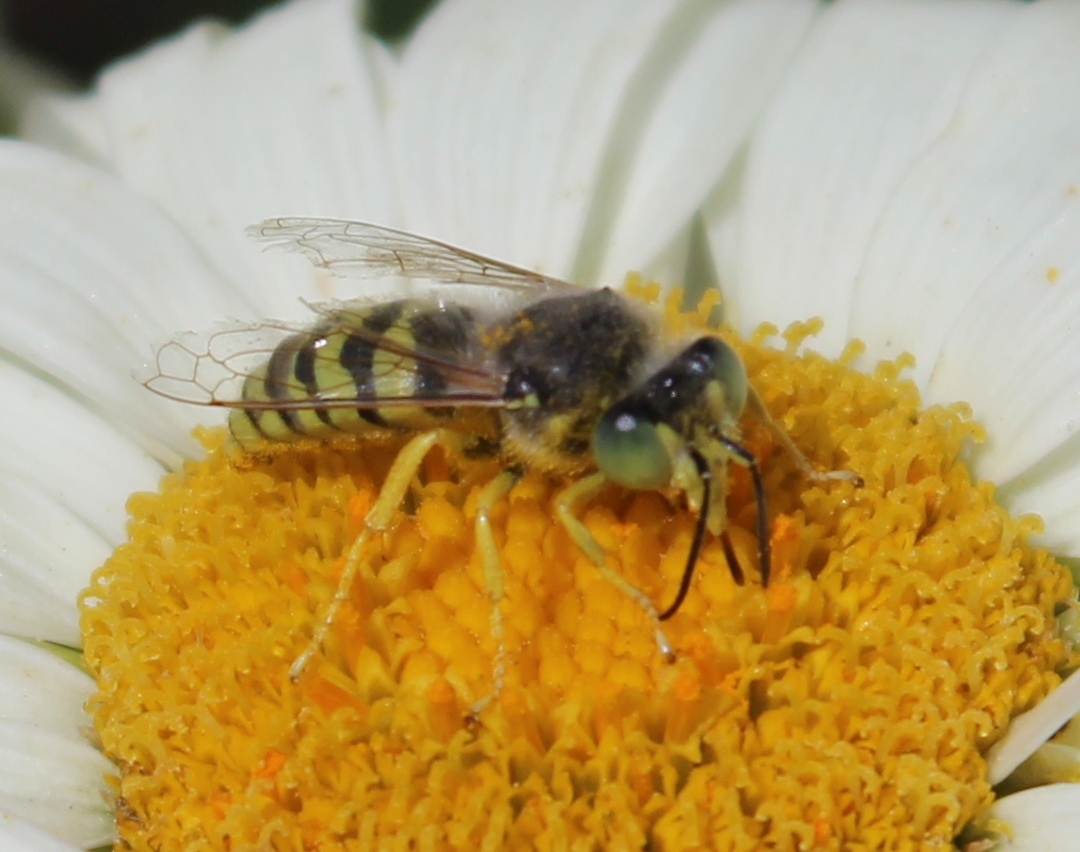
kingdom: Animalia
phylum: Arthropoda
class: Insecta
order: Hymenoptera
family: Crabronidae
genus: Bembix
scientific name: Bembix americana
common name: American sand wasp
